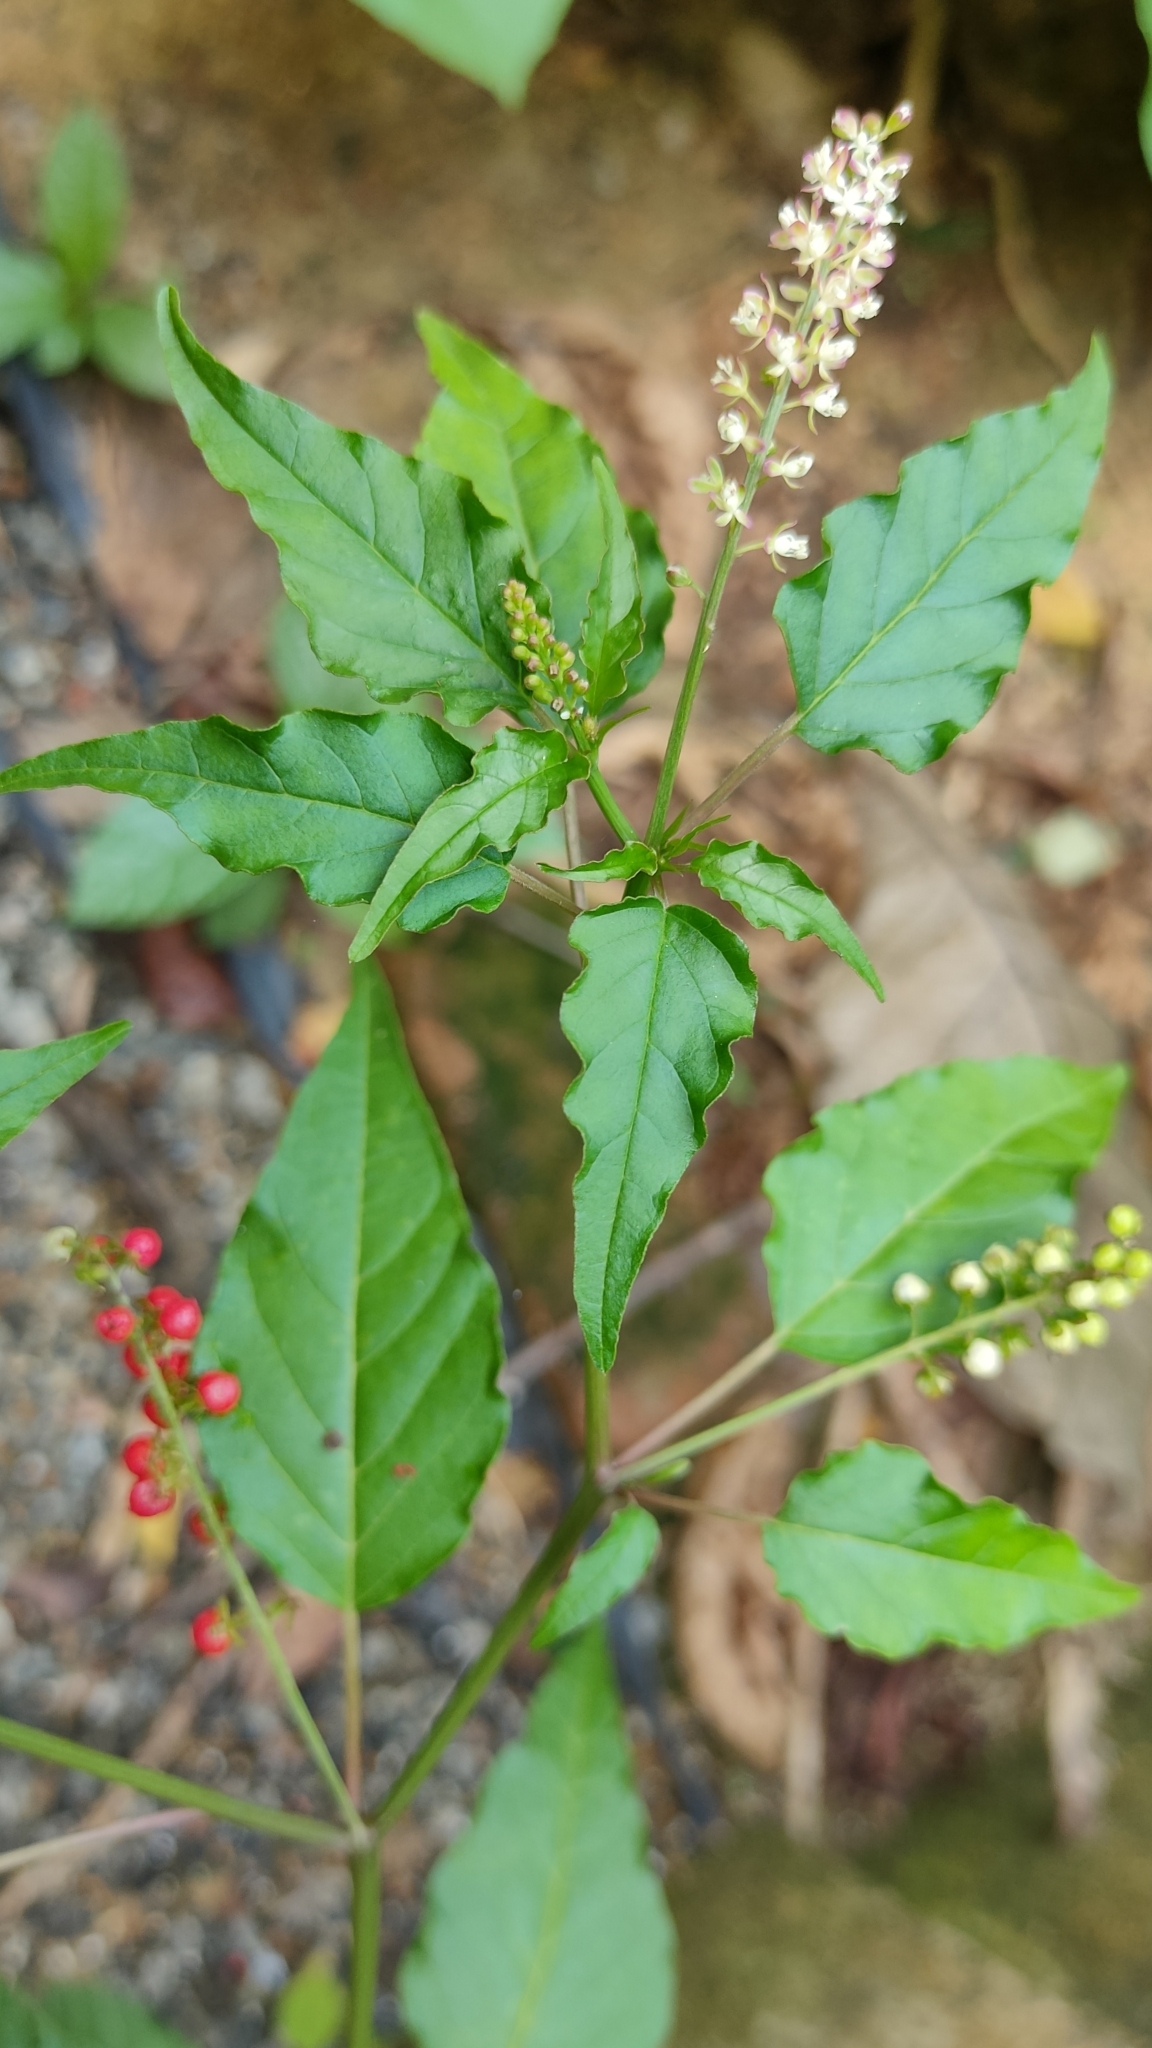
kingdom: Plantae
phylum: Tracheophyta
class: Magnoliopsida
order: Caryophyllales
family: Phytolaccaceae
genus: Rivina
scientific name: Rivina humilis
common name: Rougeplant
